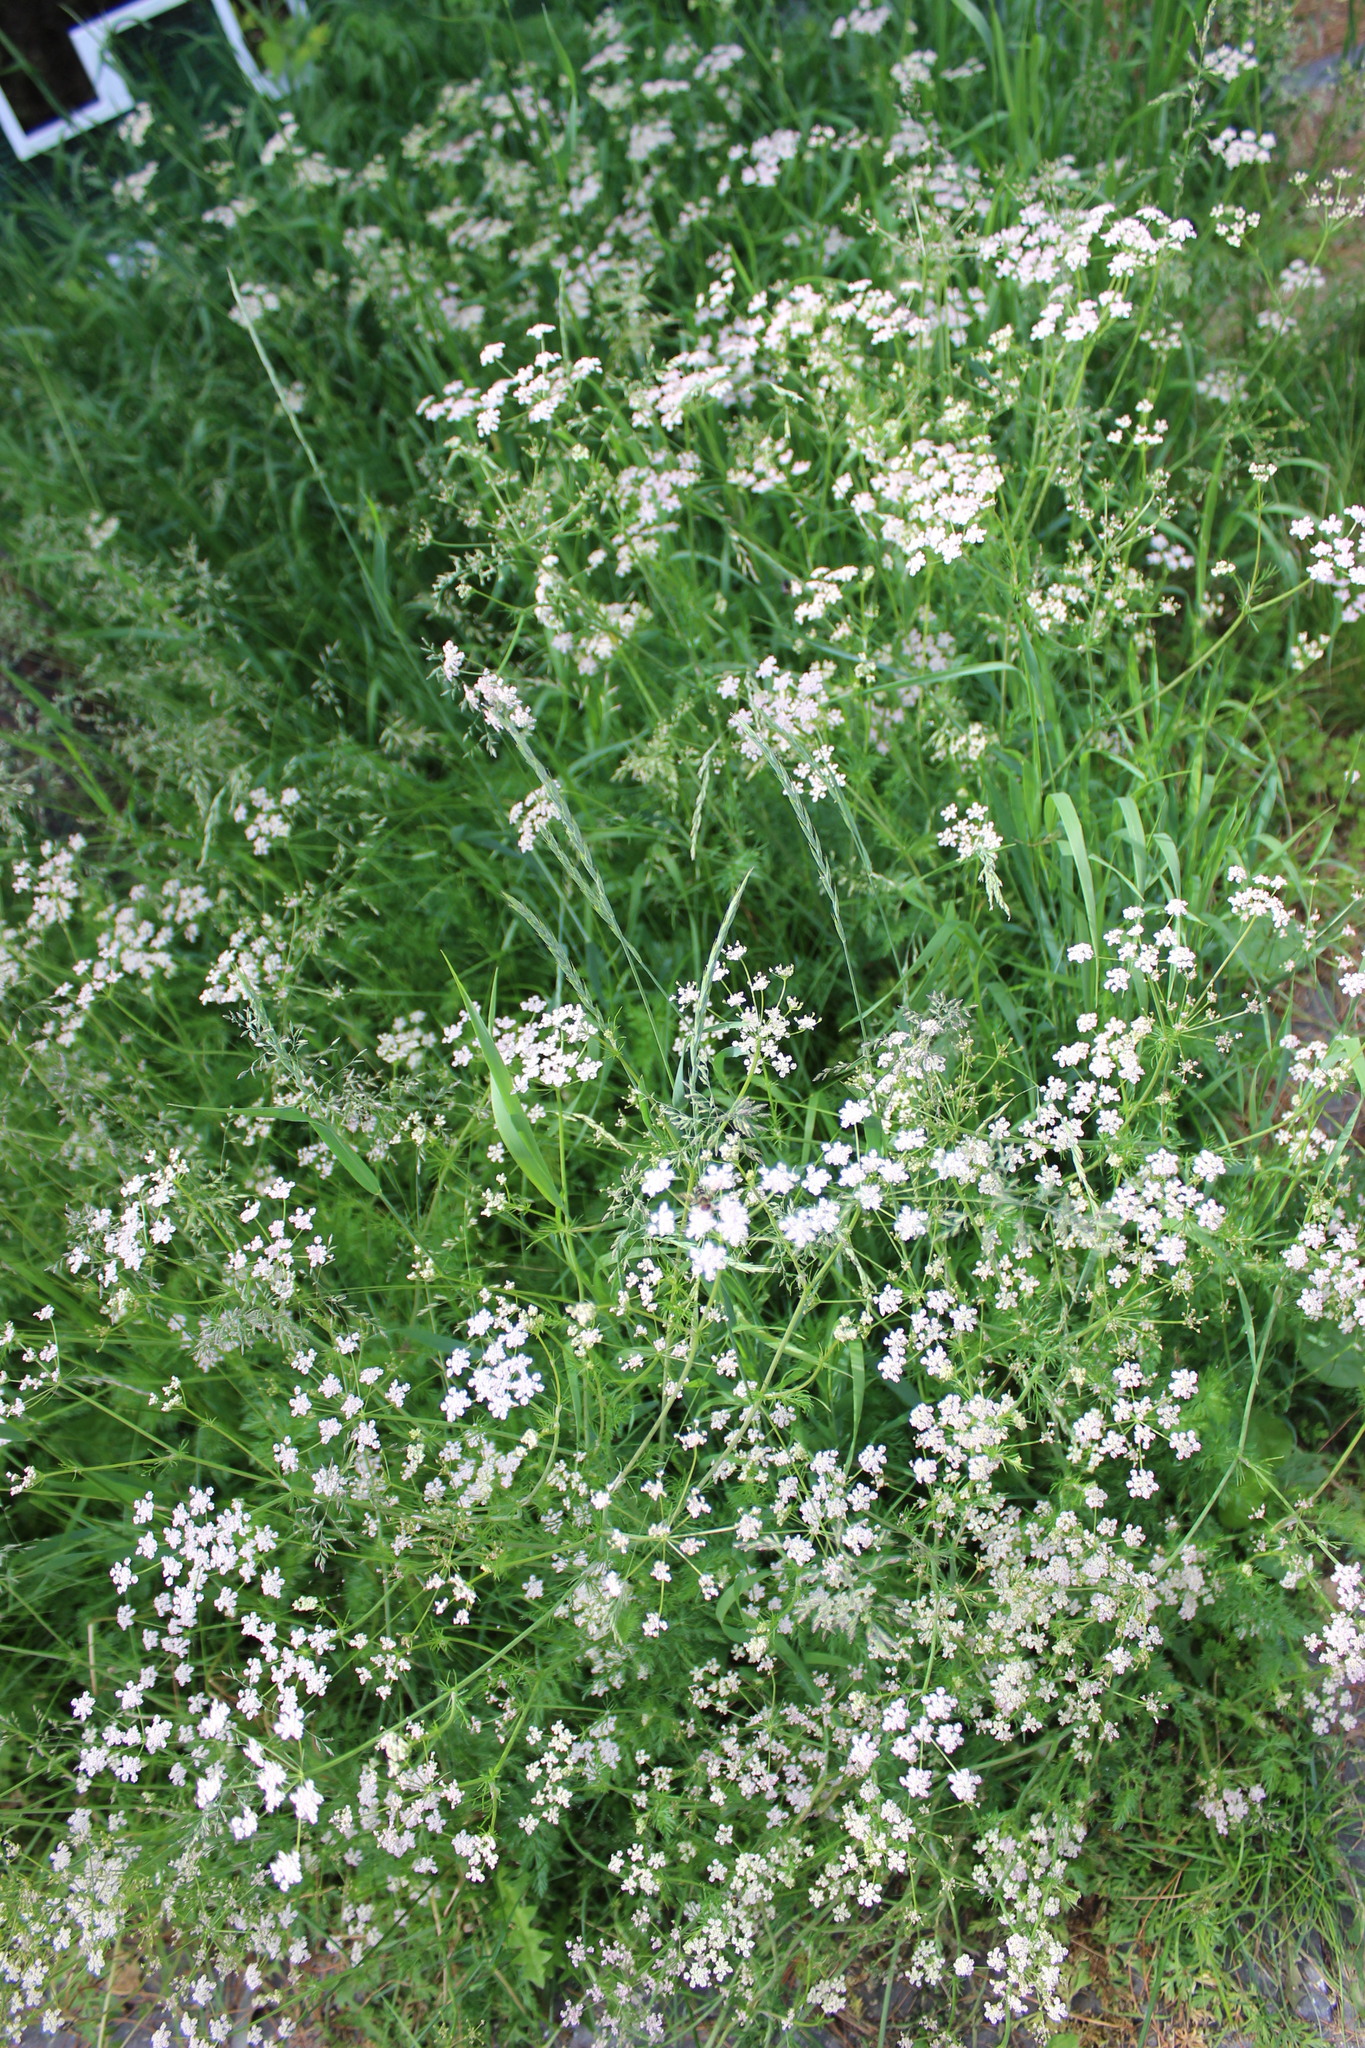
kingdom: Plantae
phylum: Tracheophyta
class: Magnoliopsida
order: Apiales
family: Apiaceae
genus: Carum
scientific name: Carum carvi
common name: Caraway
